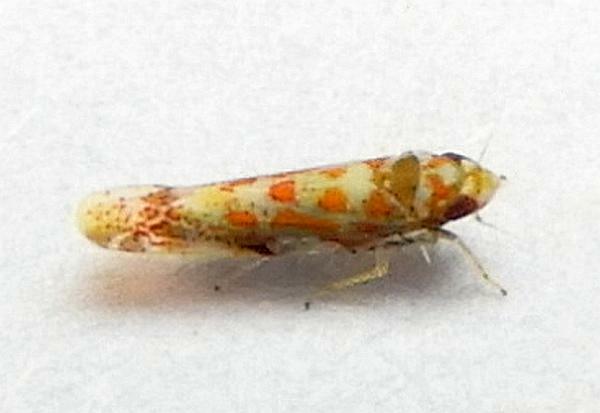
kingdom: Animalia
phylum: Arthropoda
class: Insecta
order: Hemiptera
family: Cicadellidae
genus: Dikrella
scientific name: Dikrella maculata
